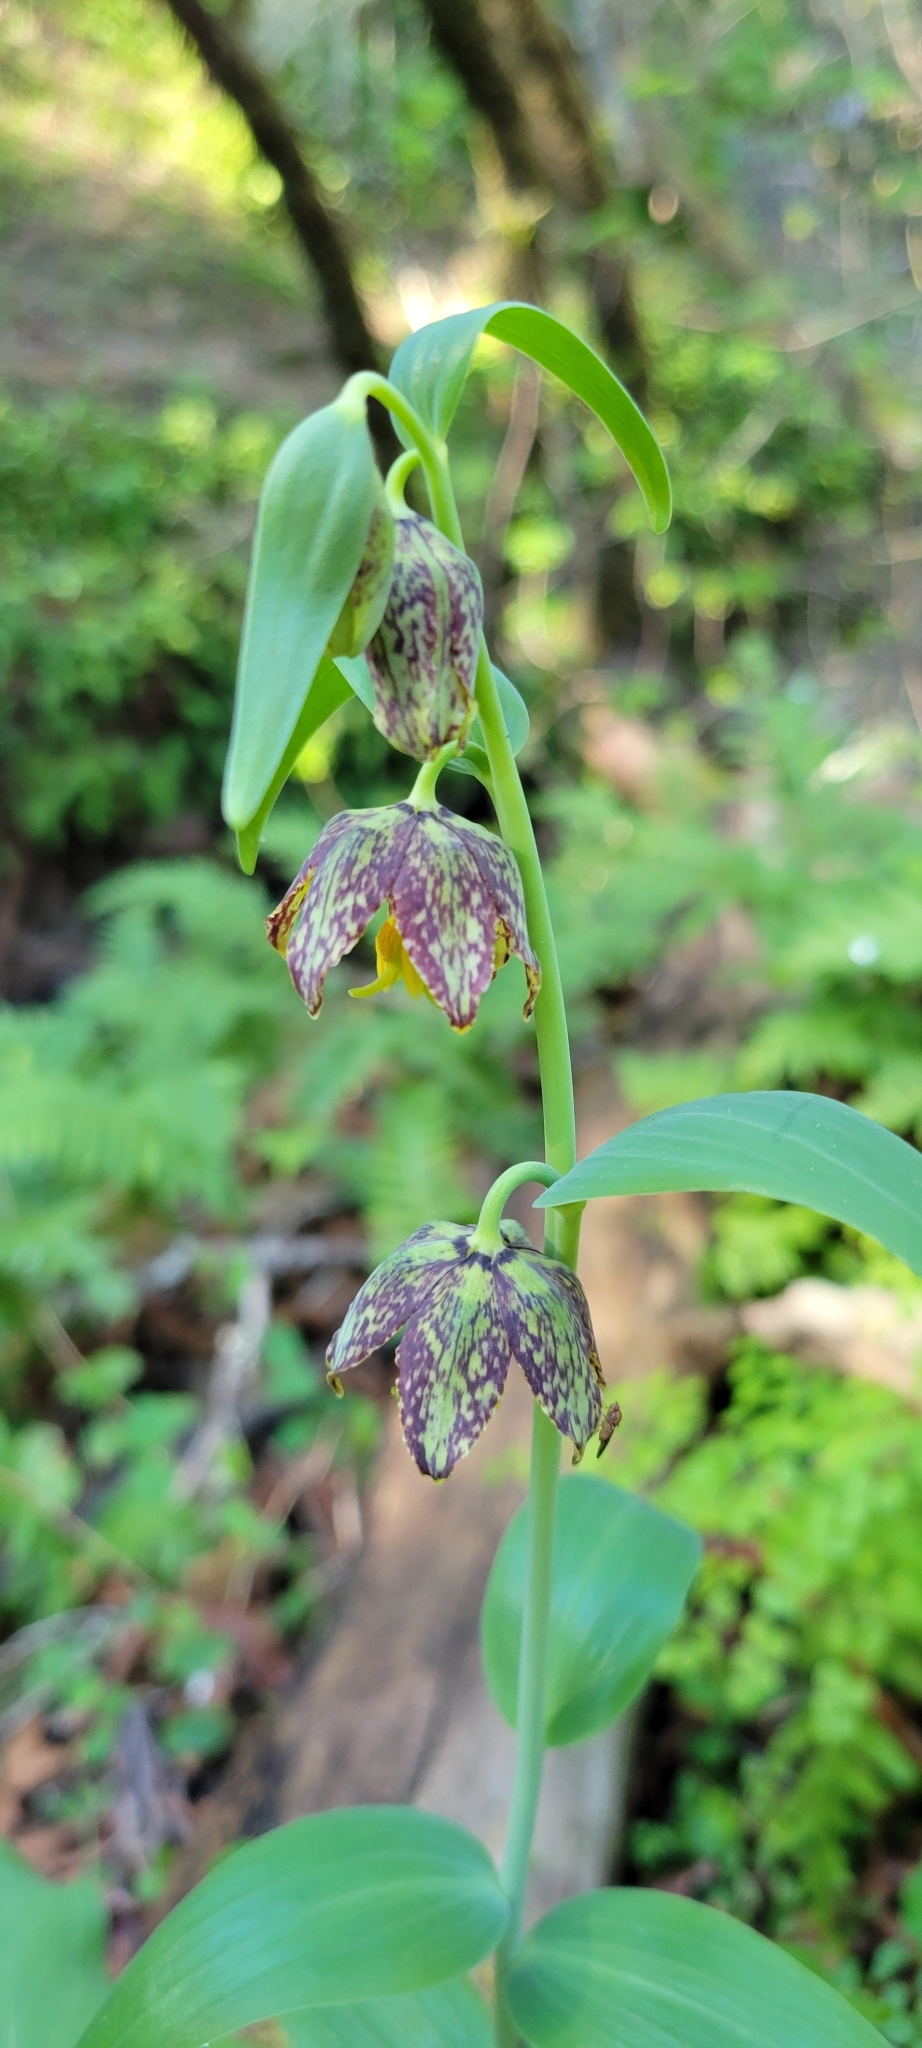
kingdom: Plantae
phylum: Tracheophyta
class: Liliopsida
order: Liliales
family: Liliaceae
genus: Fritillaria
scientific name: Fritillaria affinis
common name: Ojai fritillary
